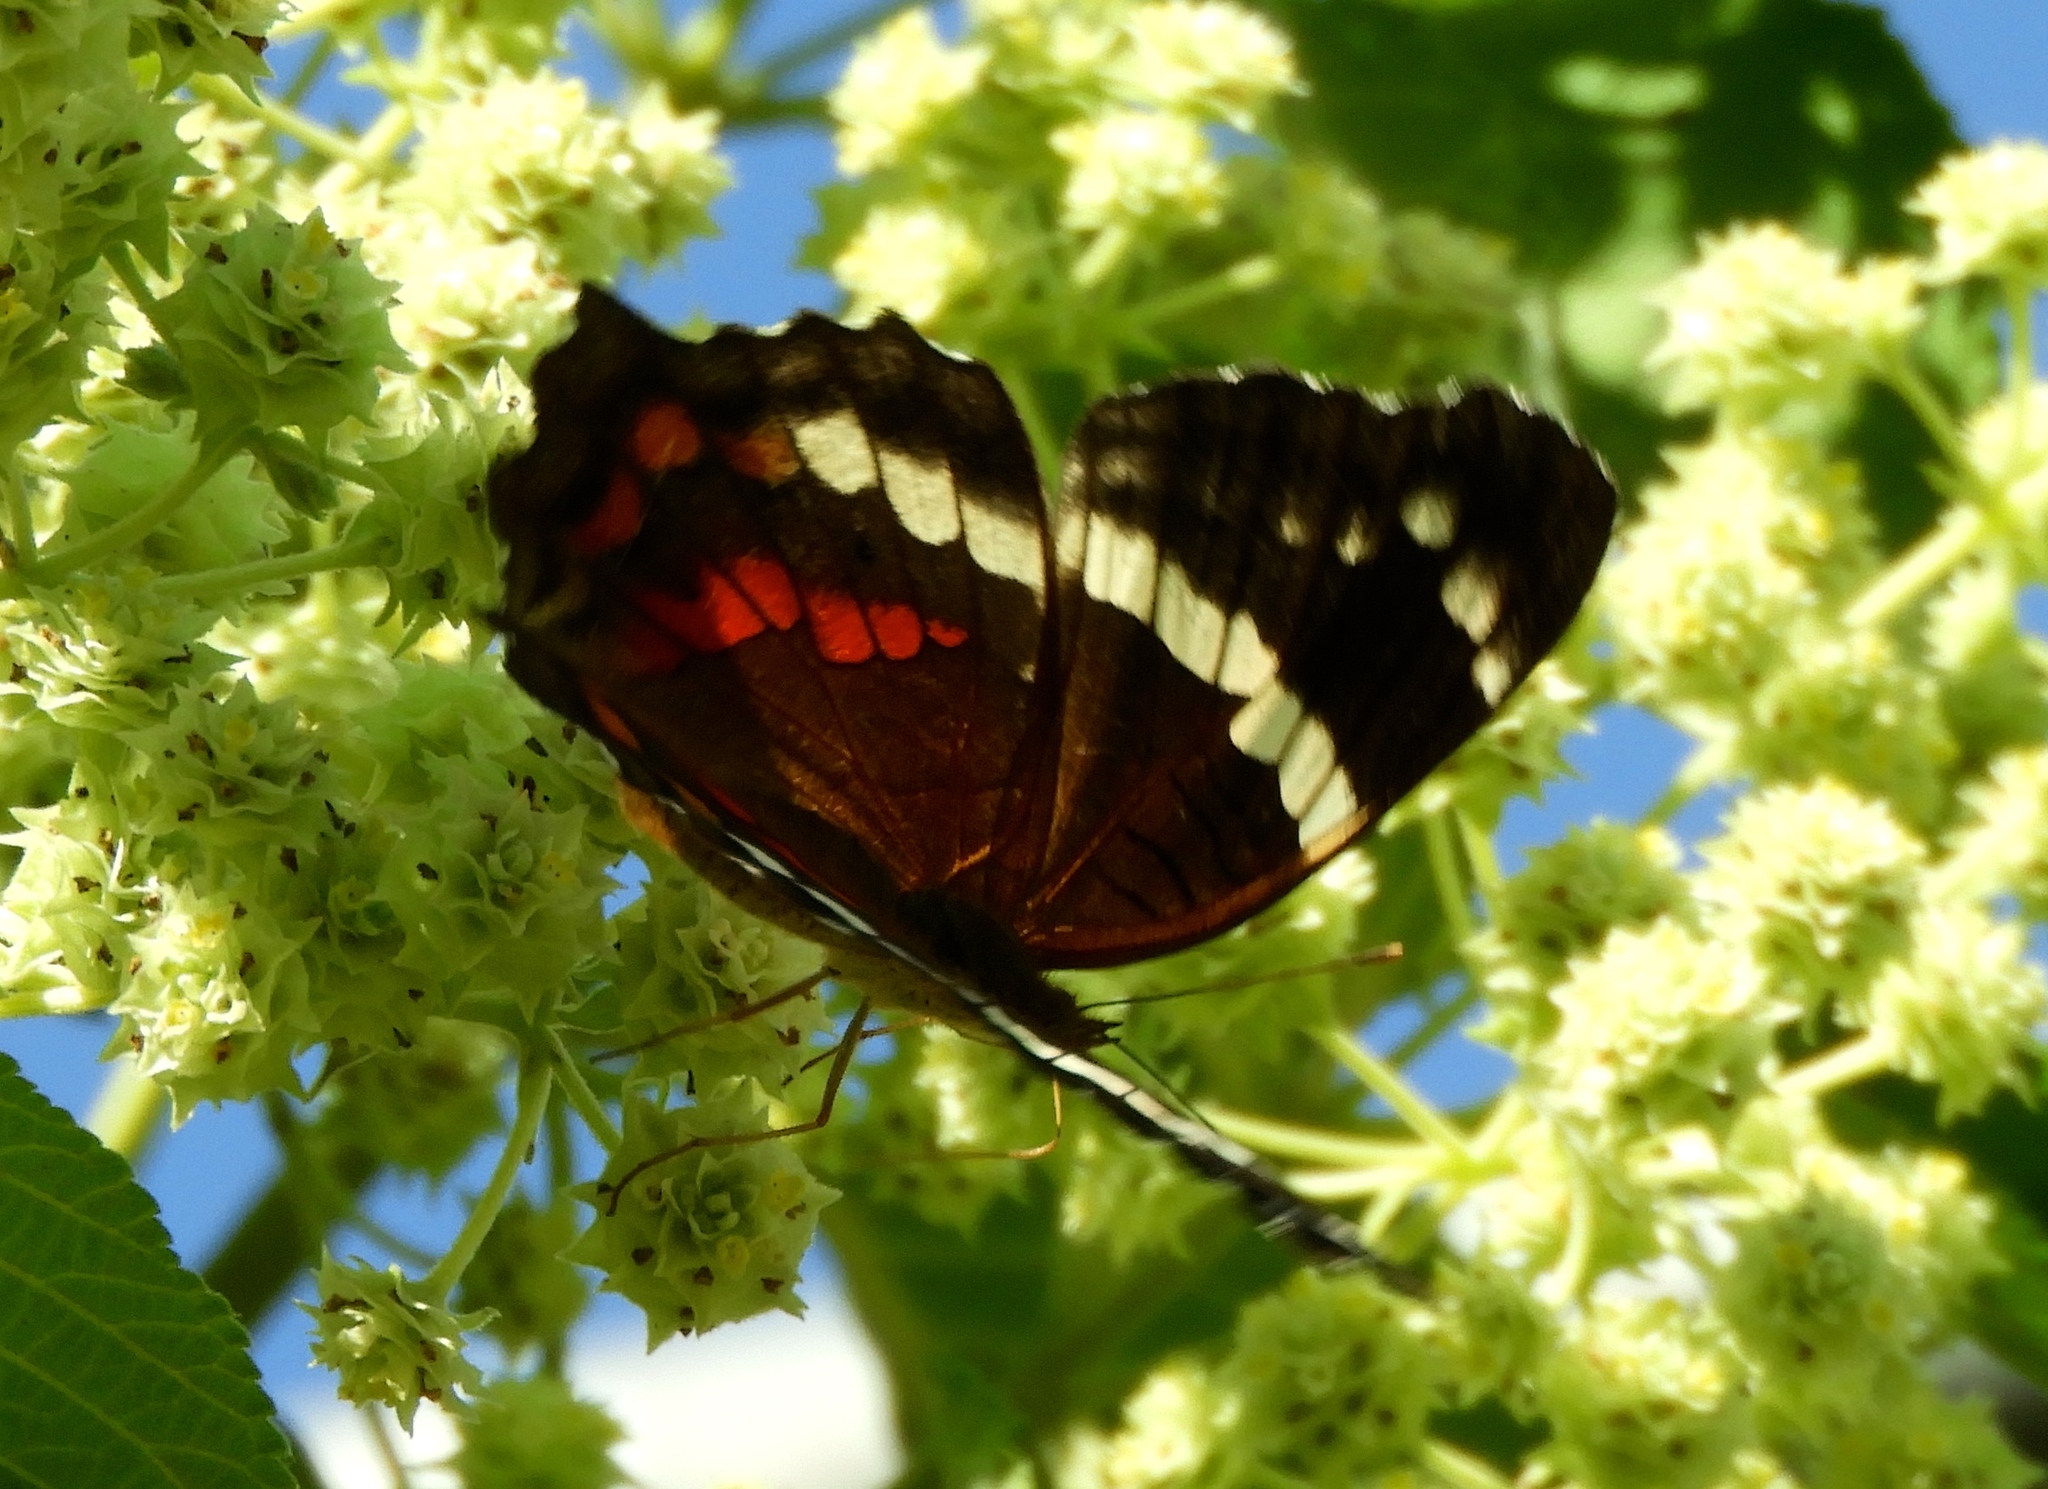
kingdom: Animalia
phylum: Arthropoda
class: Insecta
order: Lepidoptera
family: Nymphalidae
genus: Anartia
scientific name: Anartia fatima
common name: Banded peacock
